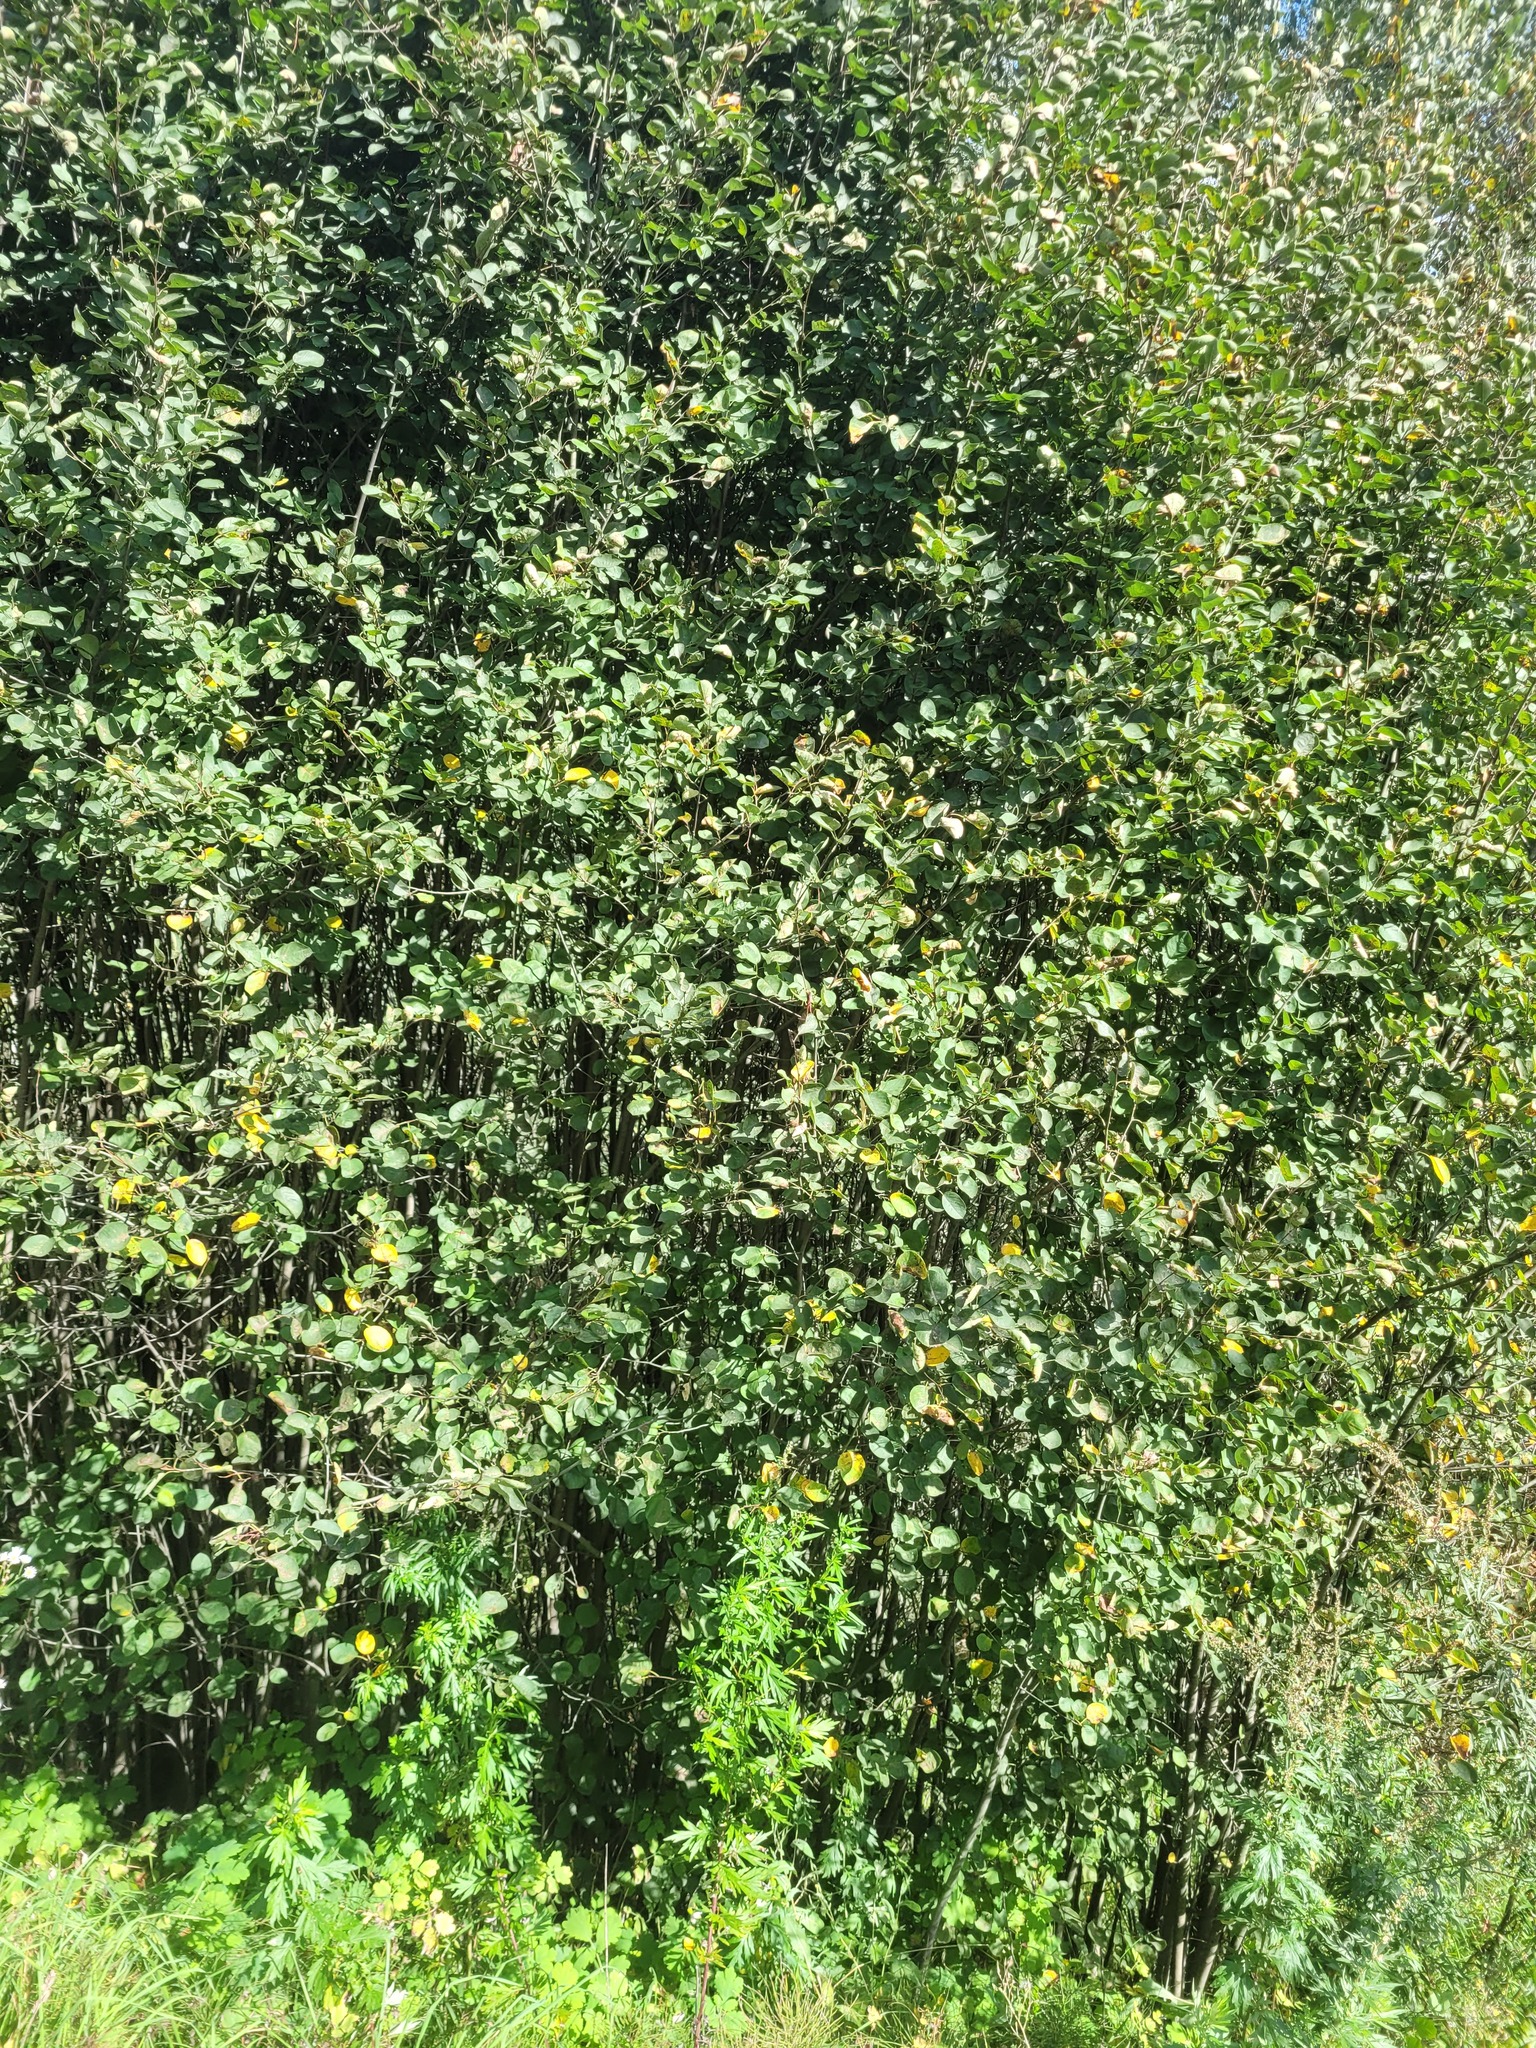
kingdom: Plantae
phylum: Tracheophyta
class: Magnoliopsida
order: Rosales
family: Rosaceae
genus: Amelanchier
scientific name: Amelanchier
